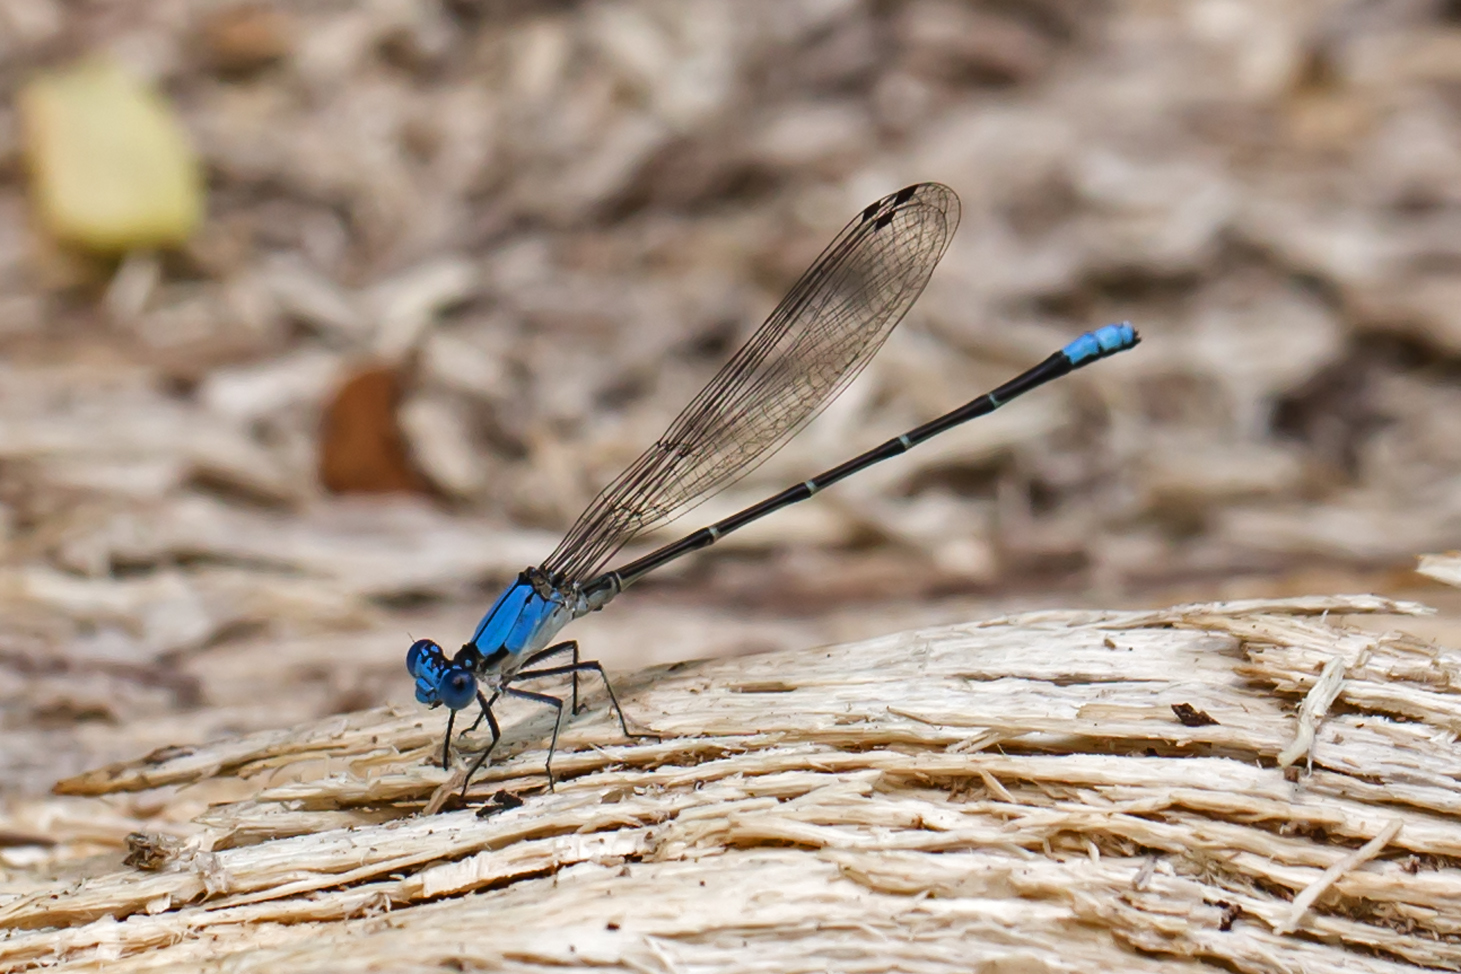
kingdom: Animalia
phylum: Arthropoda
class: Insecta
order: Odonata
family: Coenagrionidae
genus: Argia
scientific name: Argia apicalis
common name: Blue-fronted dancer
